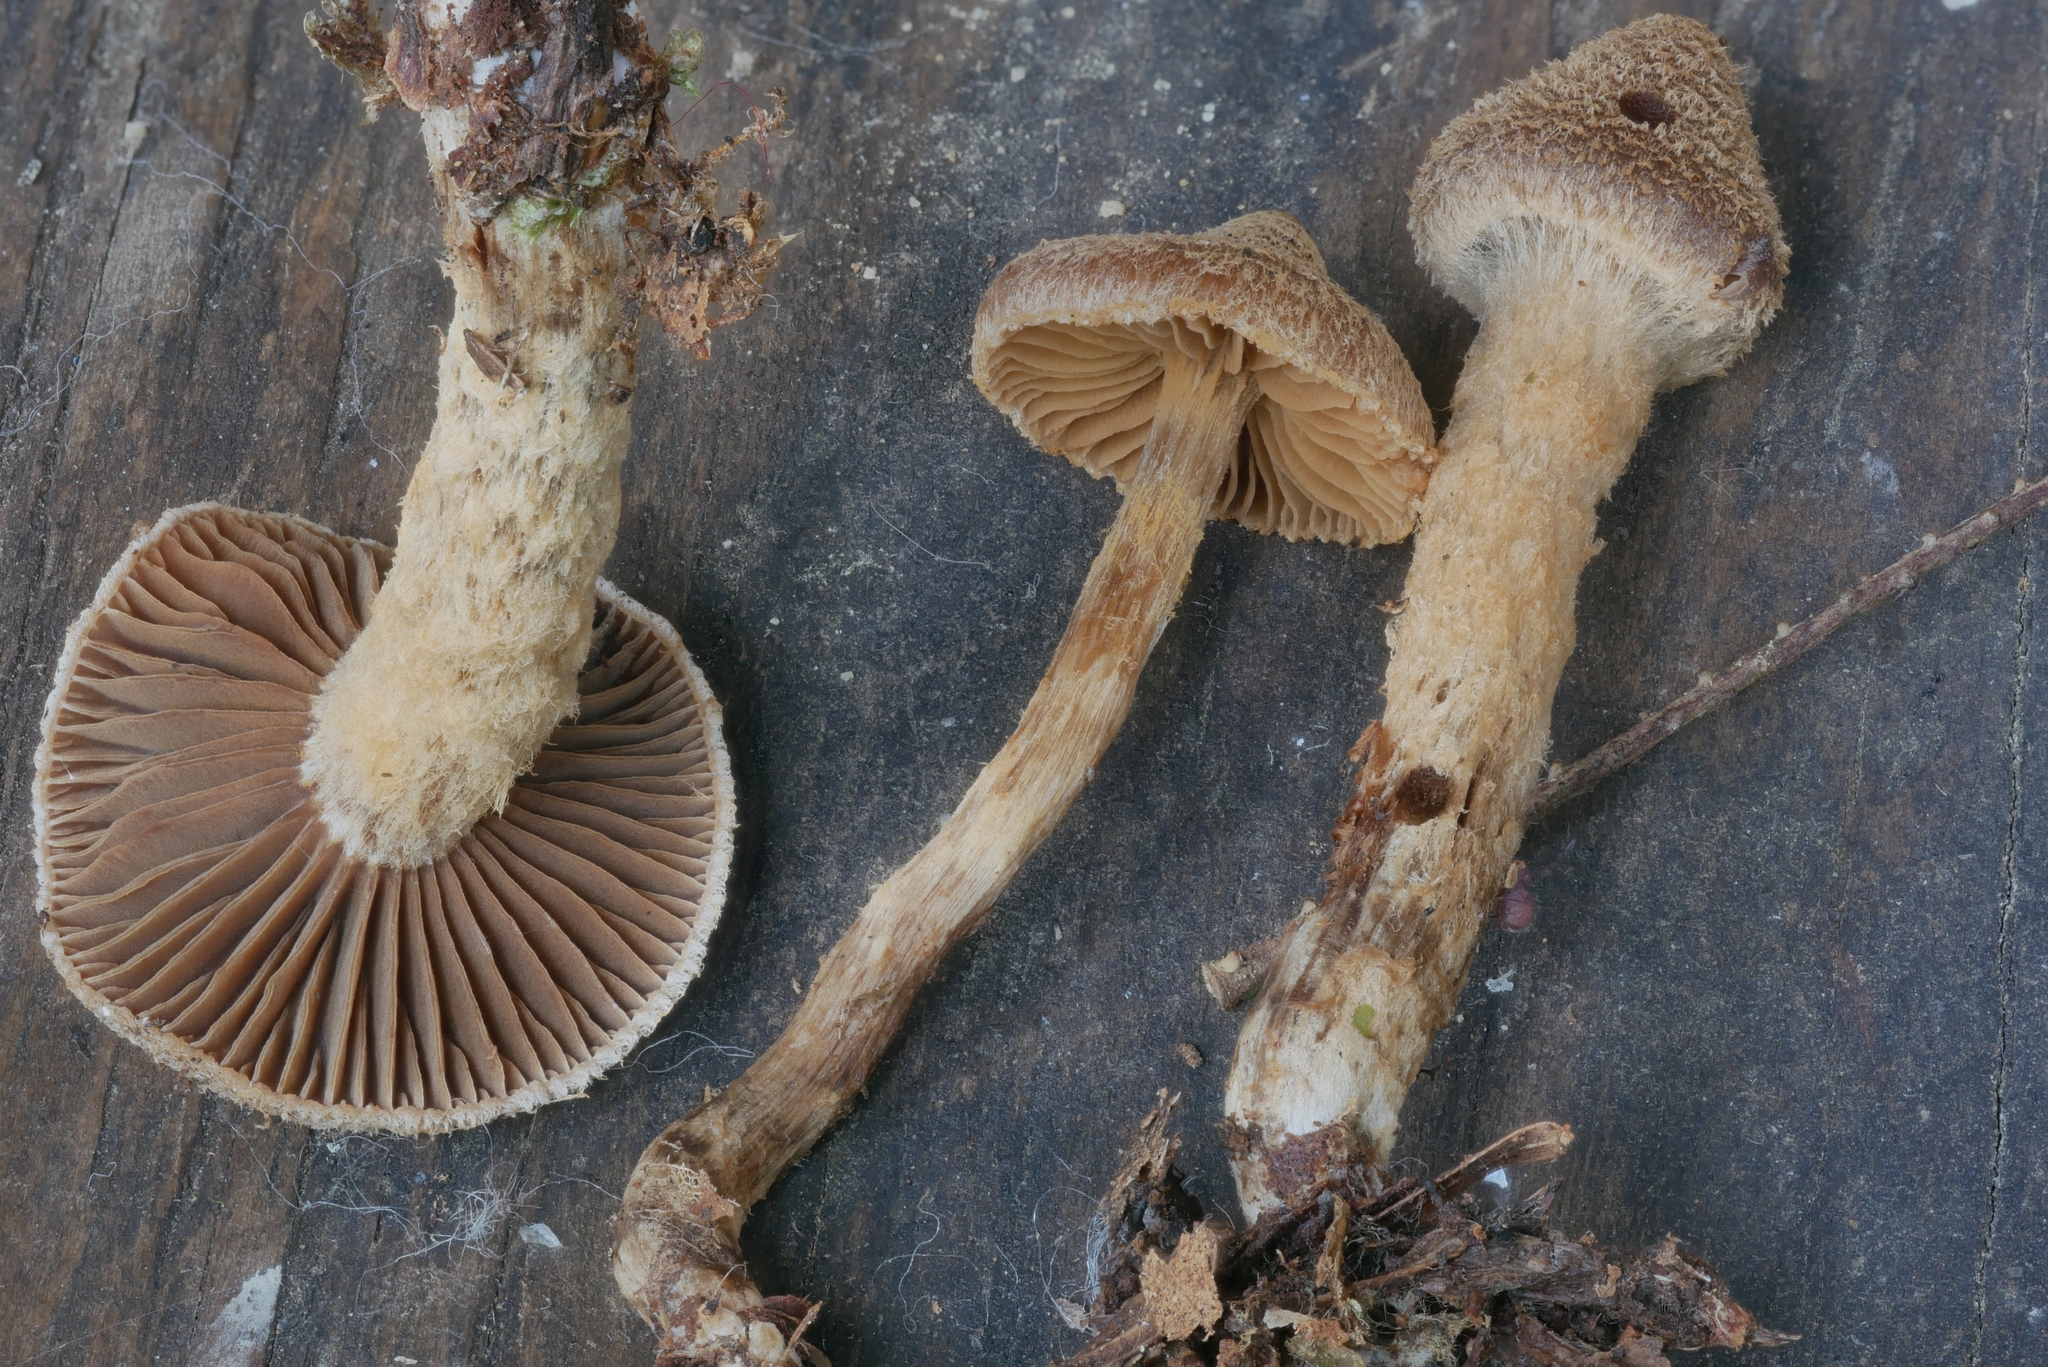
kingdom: Fungi
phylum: Basidiomycota
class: Agaricomycetes
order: Agaricales
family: Cortinariaceae
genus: Cortinarius
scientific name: Cortinarius flexipes
